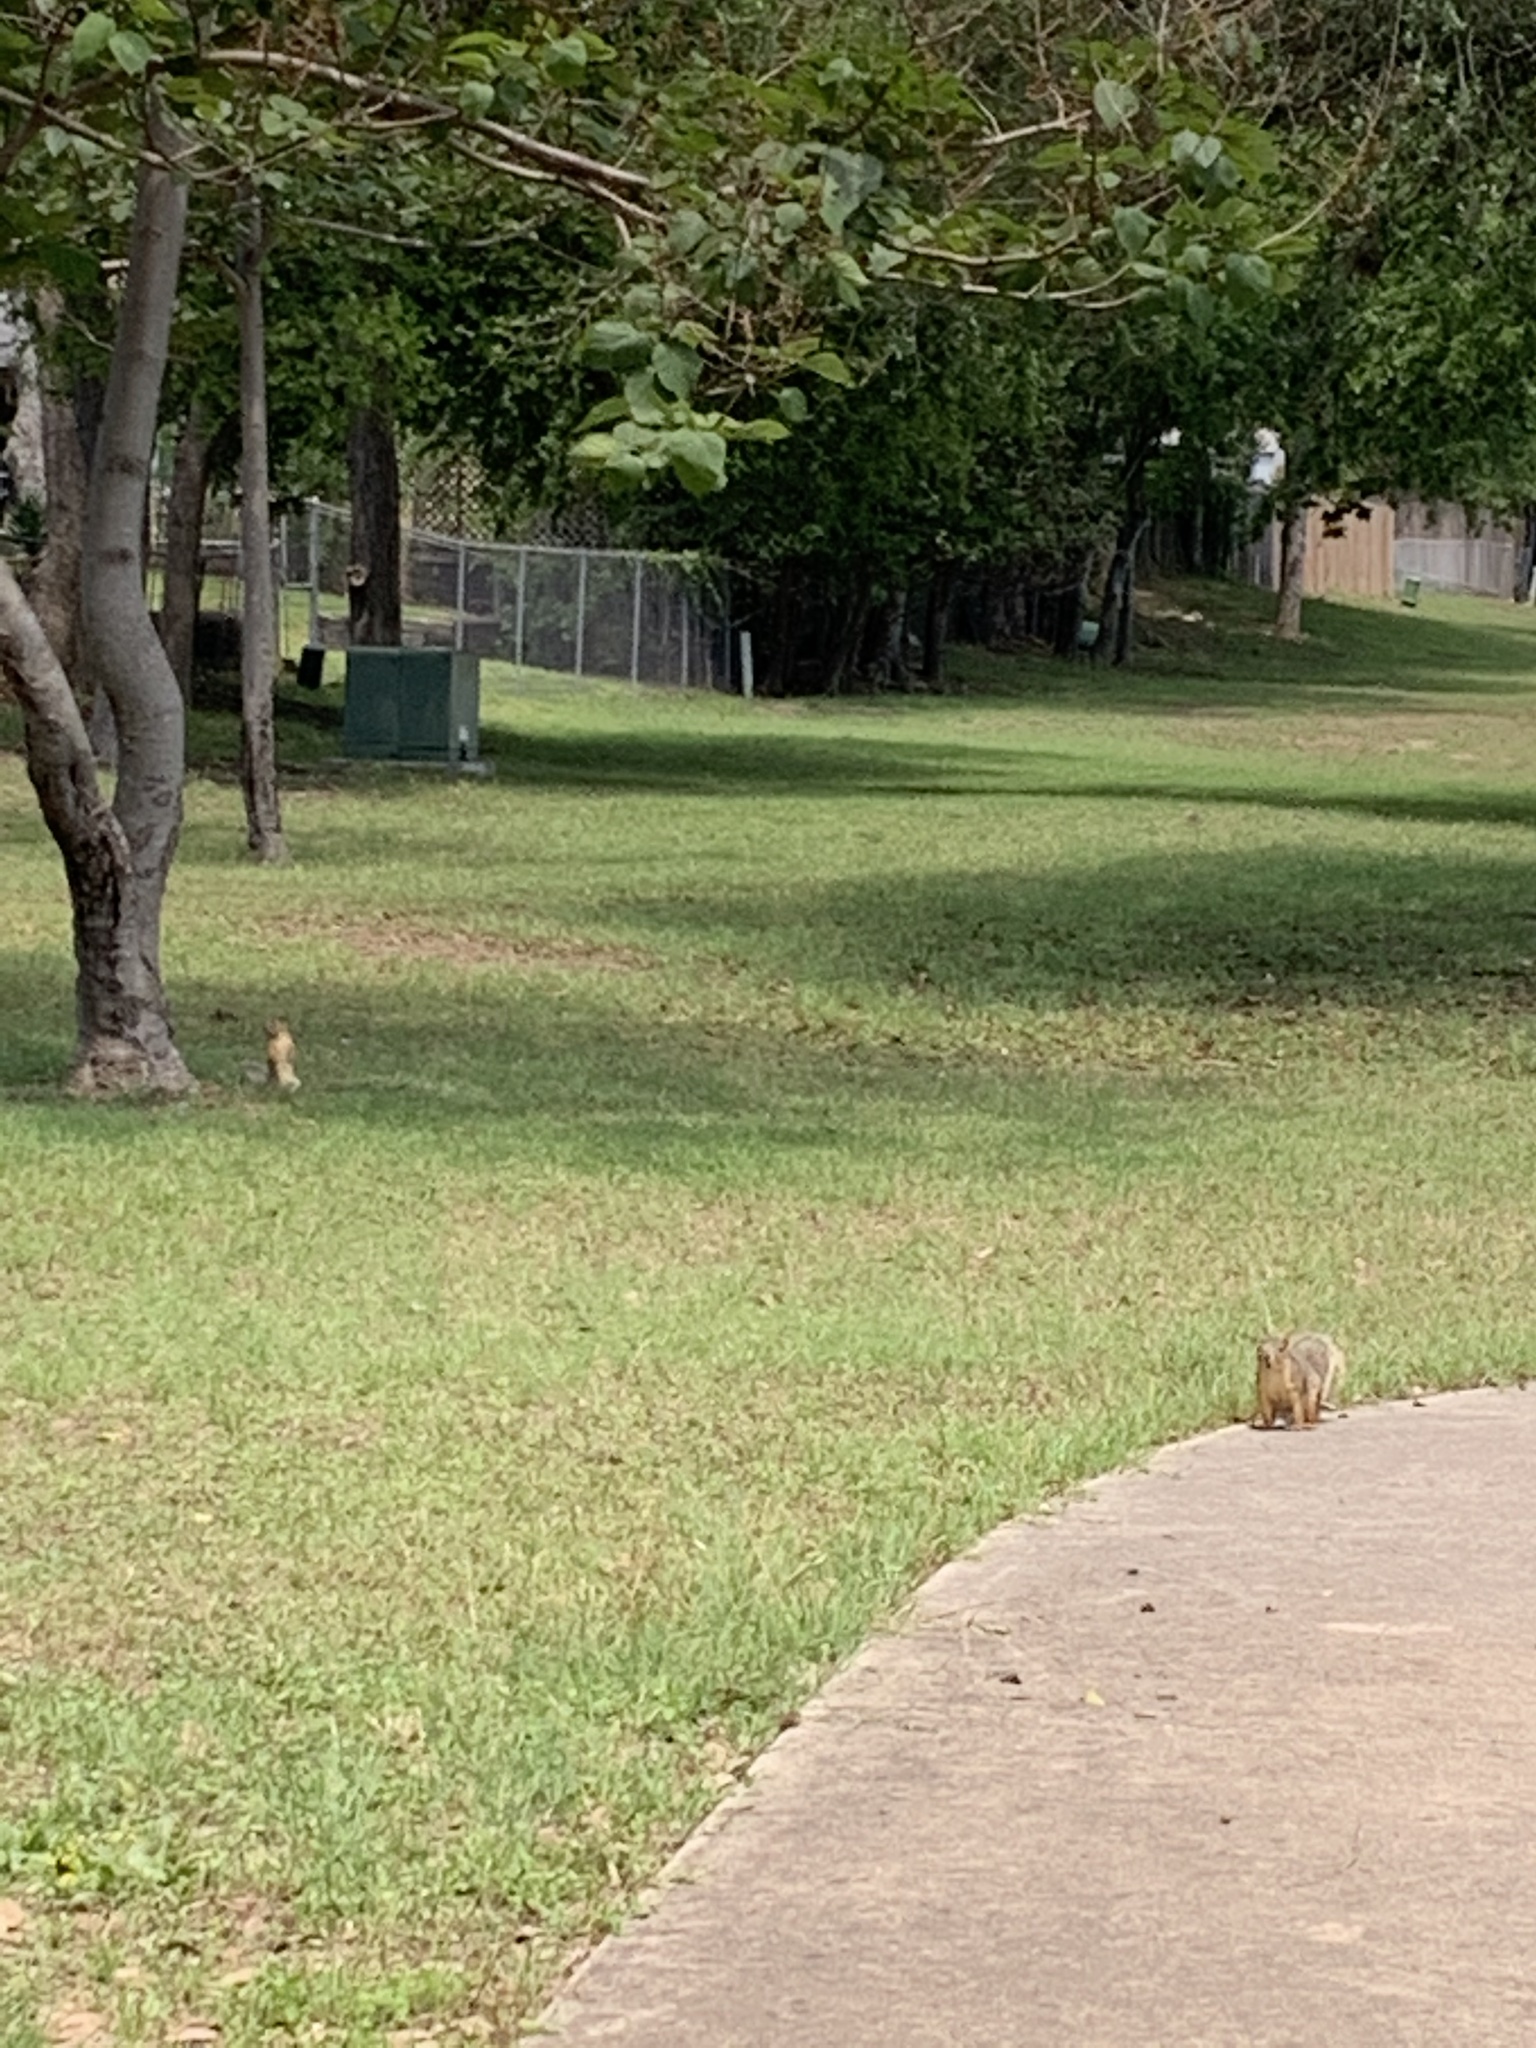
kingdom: Animalia
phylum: Chordata
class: Mammalia
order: Rodentia
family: Sciuridae
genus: Sciurus
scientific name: Sciurus niger
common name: Fox squirrel
